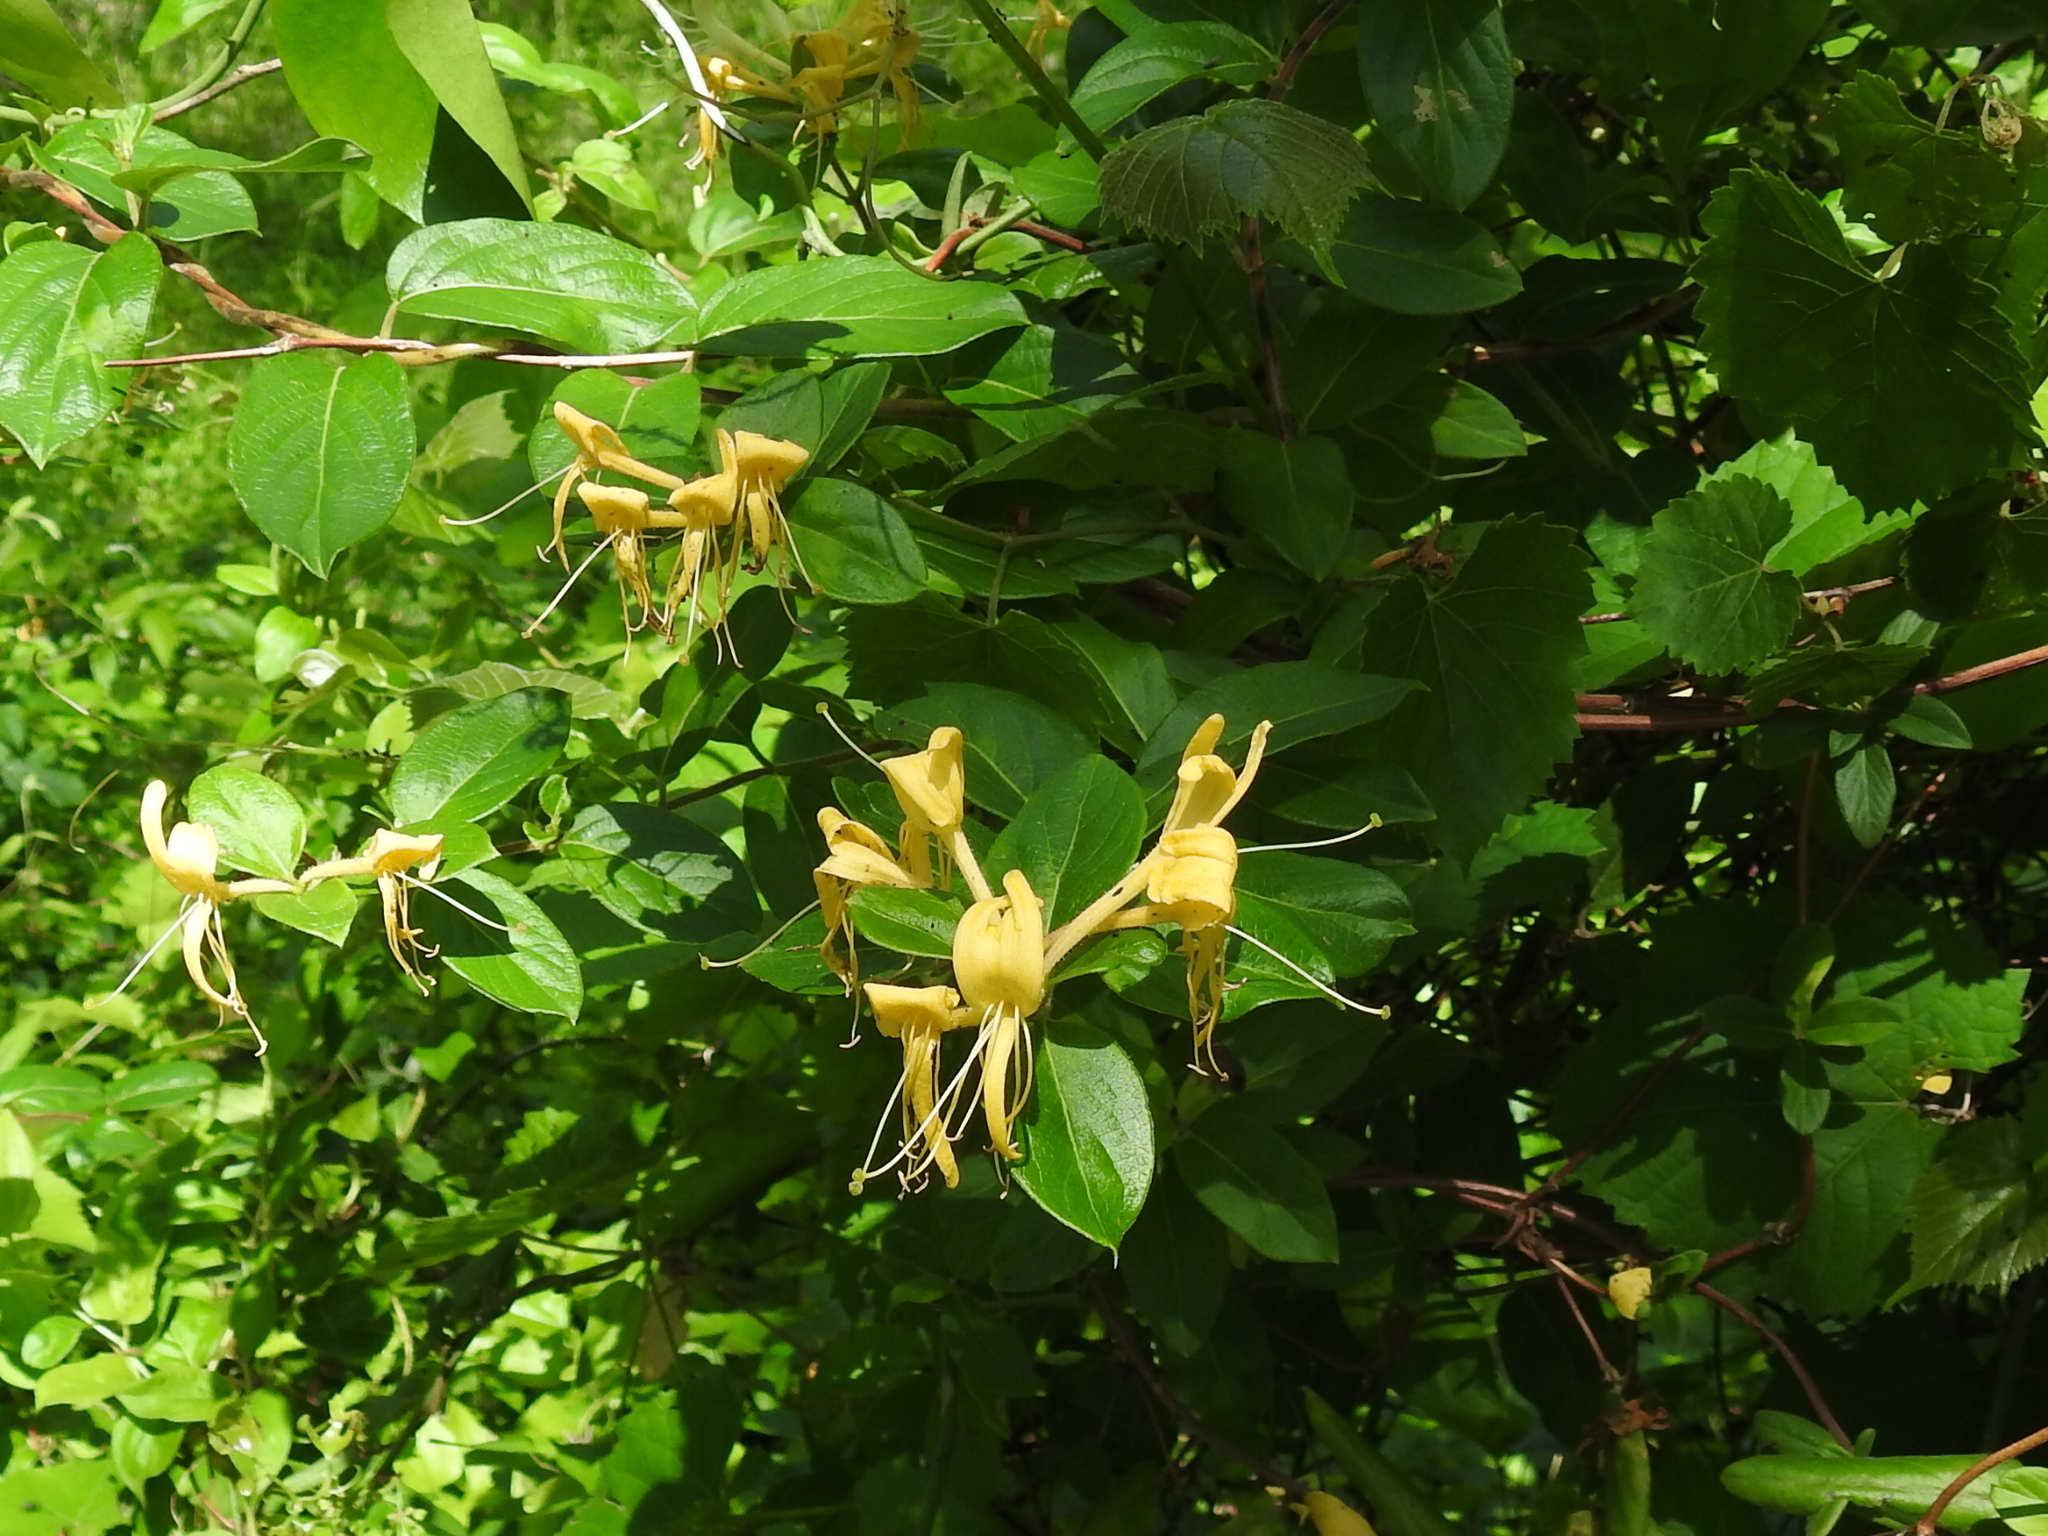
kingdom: Plantae
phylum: Tracheophyta
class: Magnoliopsida
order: Dipsacales
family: Caprifoliaceae
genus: Lonicera
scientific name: Lonicera japonica
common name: Japanese honeysuckle
